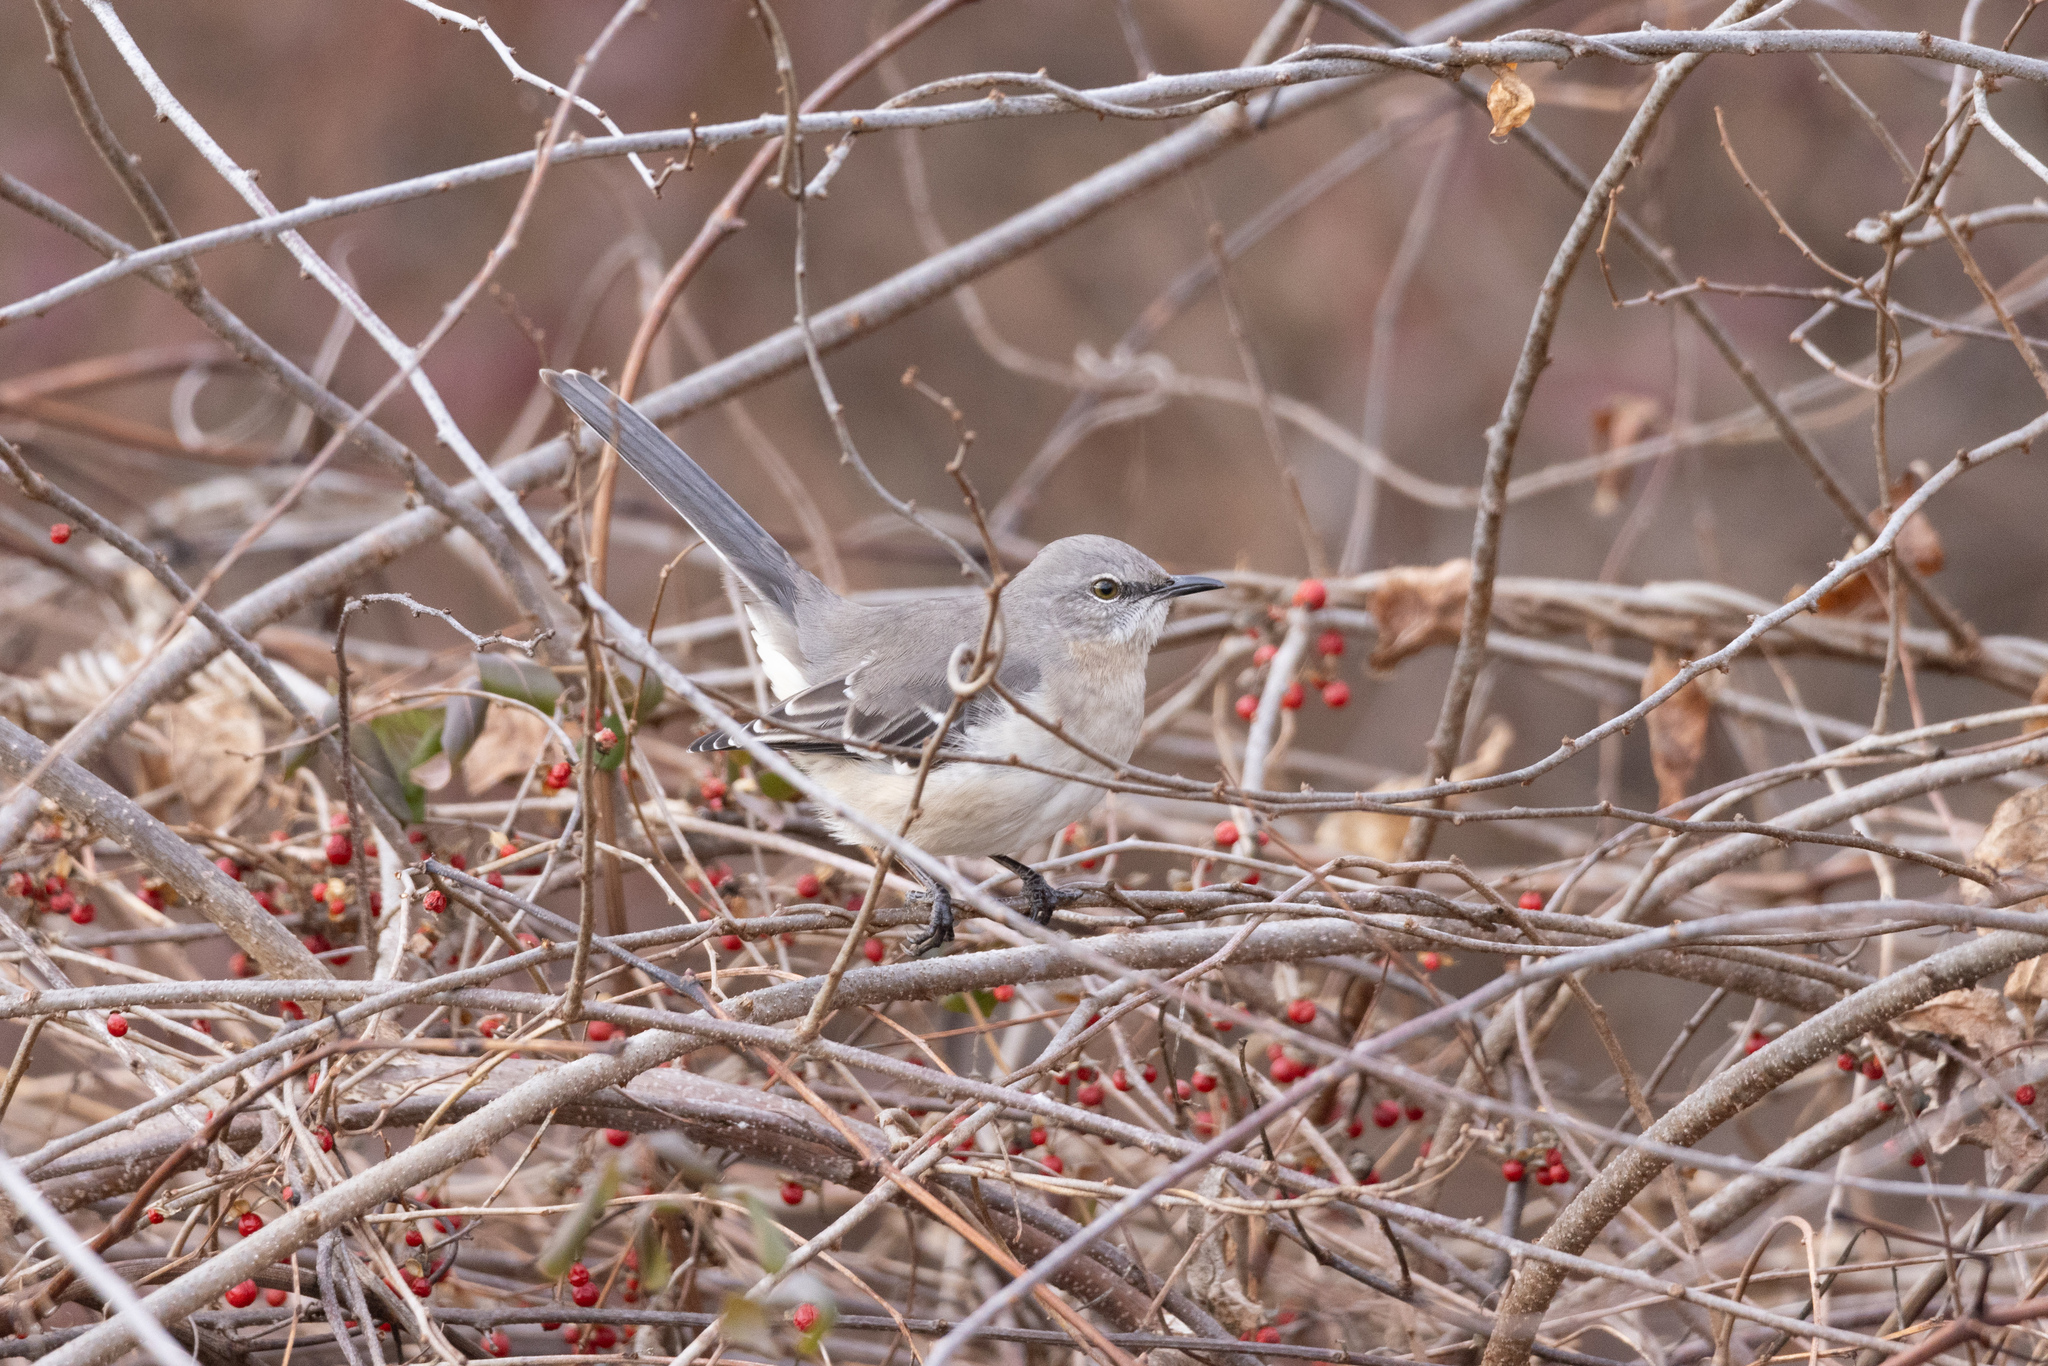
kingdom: Animalia
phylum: Chordata
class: Aves
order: Passeriformes
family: Mimidae
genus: Mimus
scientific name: Mimus polyglottos
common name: Northern mockingbird
